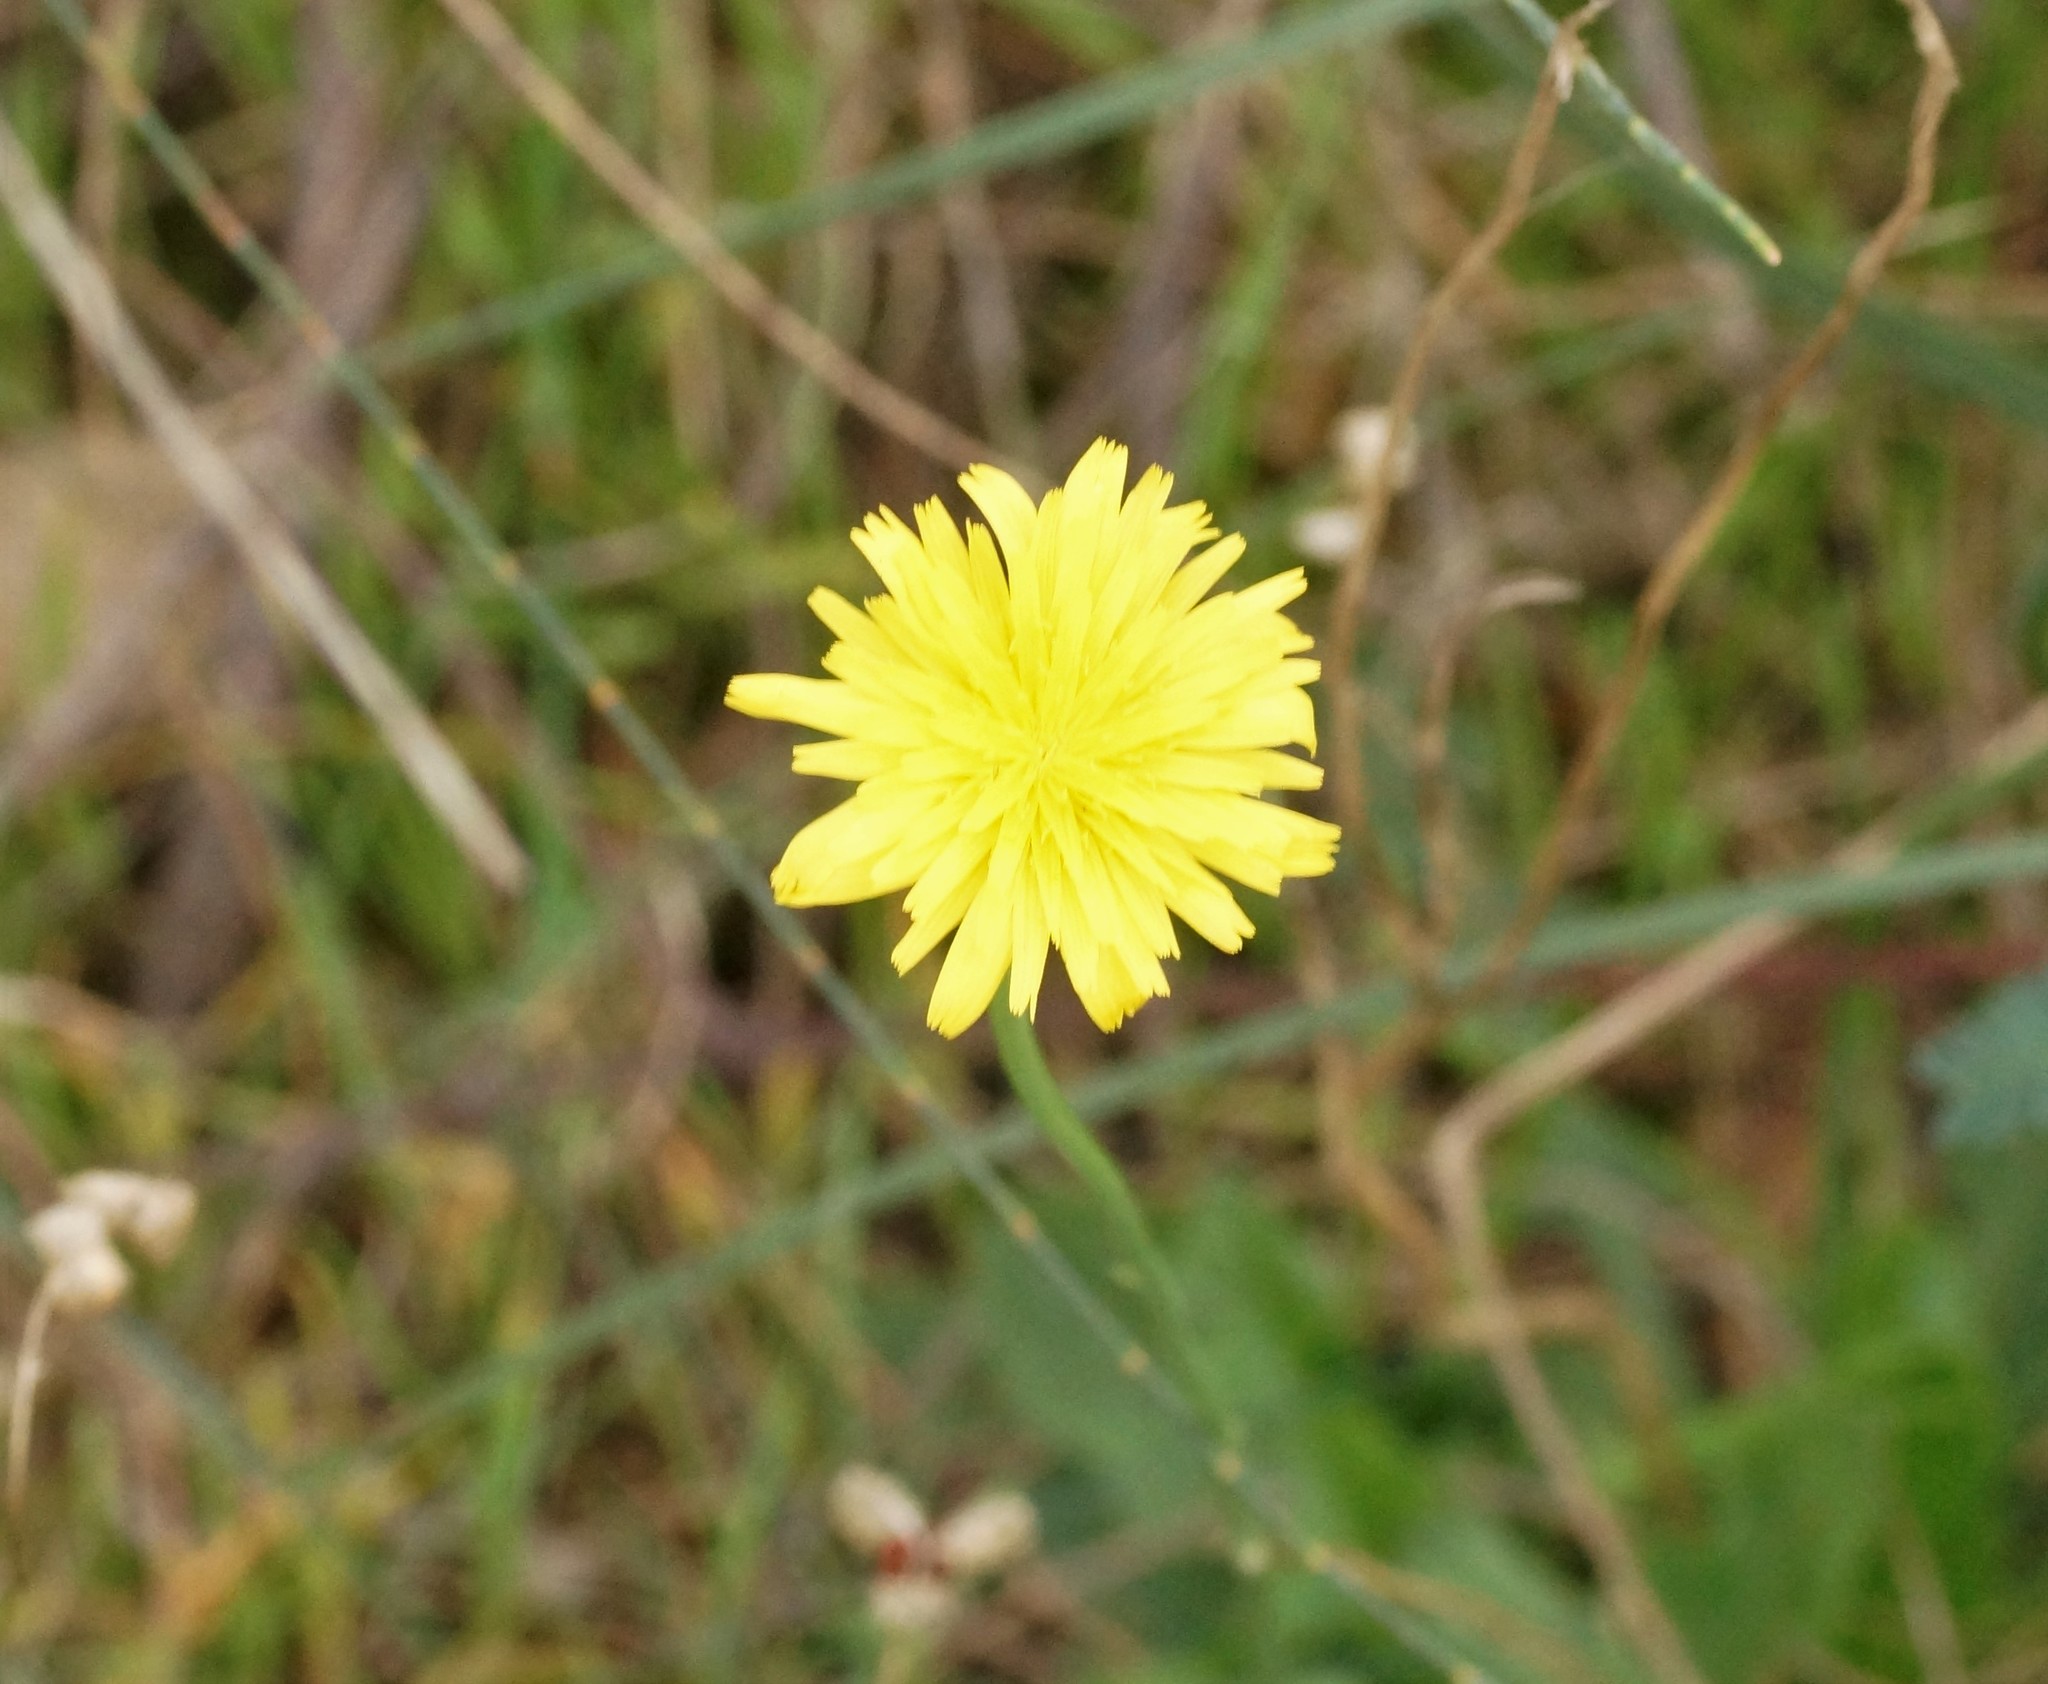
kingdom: Plantae
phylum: Tracheophyta
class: Magnoliopsida
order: Asterales
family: Asteraceae
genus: Hypochaeris
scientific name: Hypochaeris radicata
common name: Flatweed
